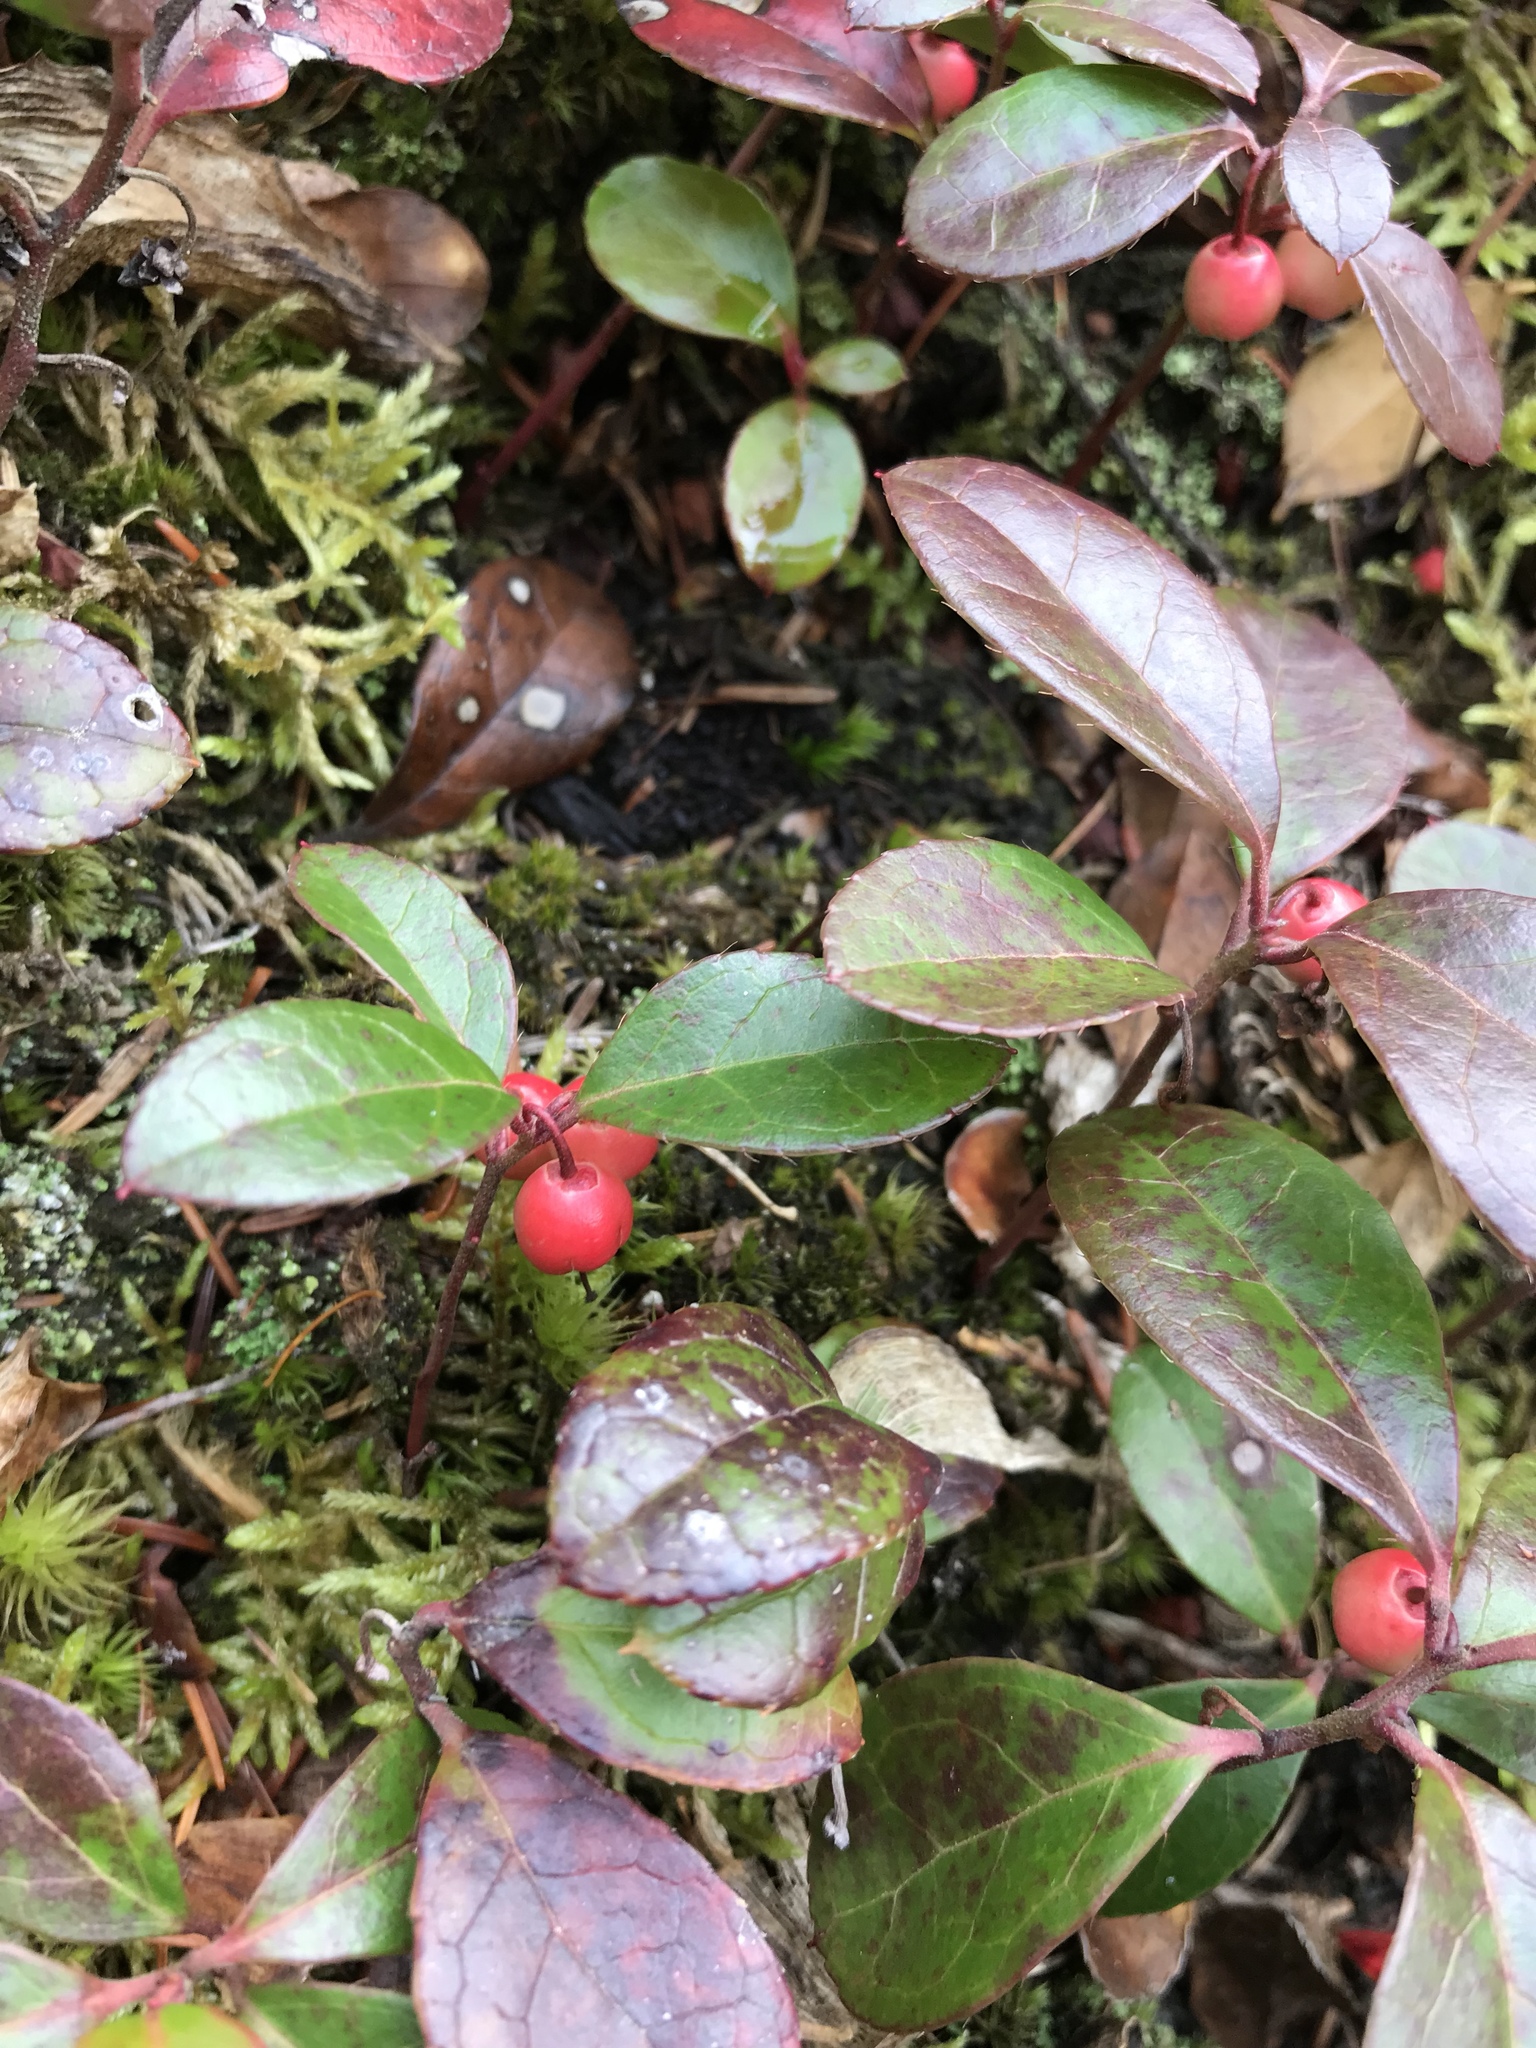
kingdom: Plantae
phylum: Tracheophyta
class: Magnoliopsida
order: Ericales
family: Ericaceae
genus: Gaultheria
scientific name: Gaultheria procumbens
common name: Checkerberry
